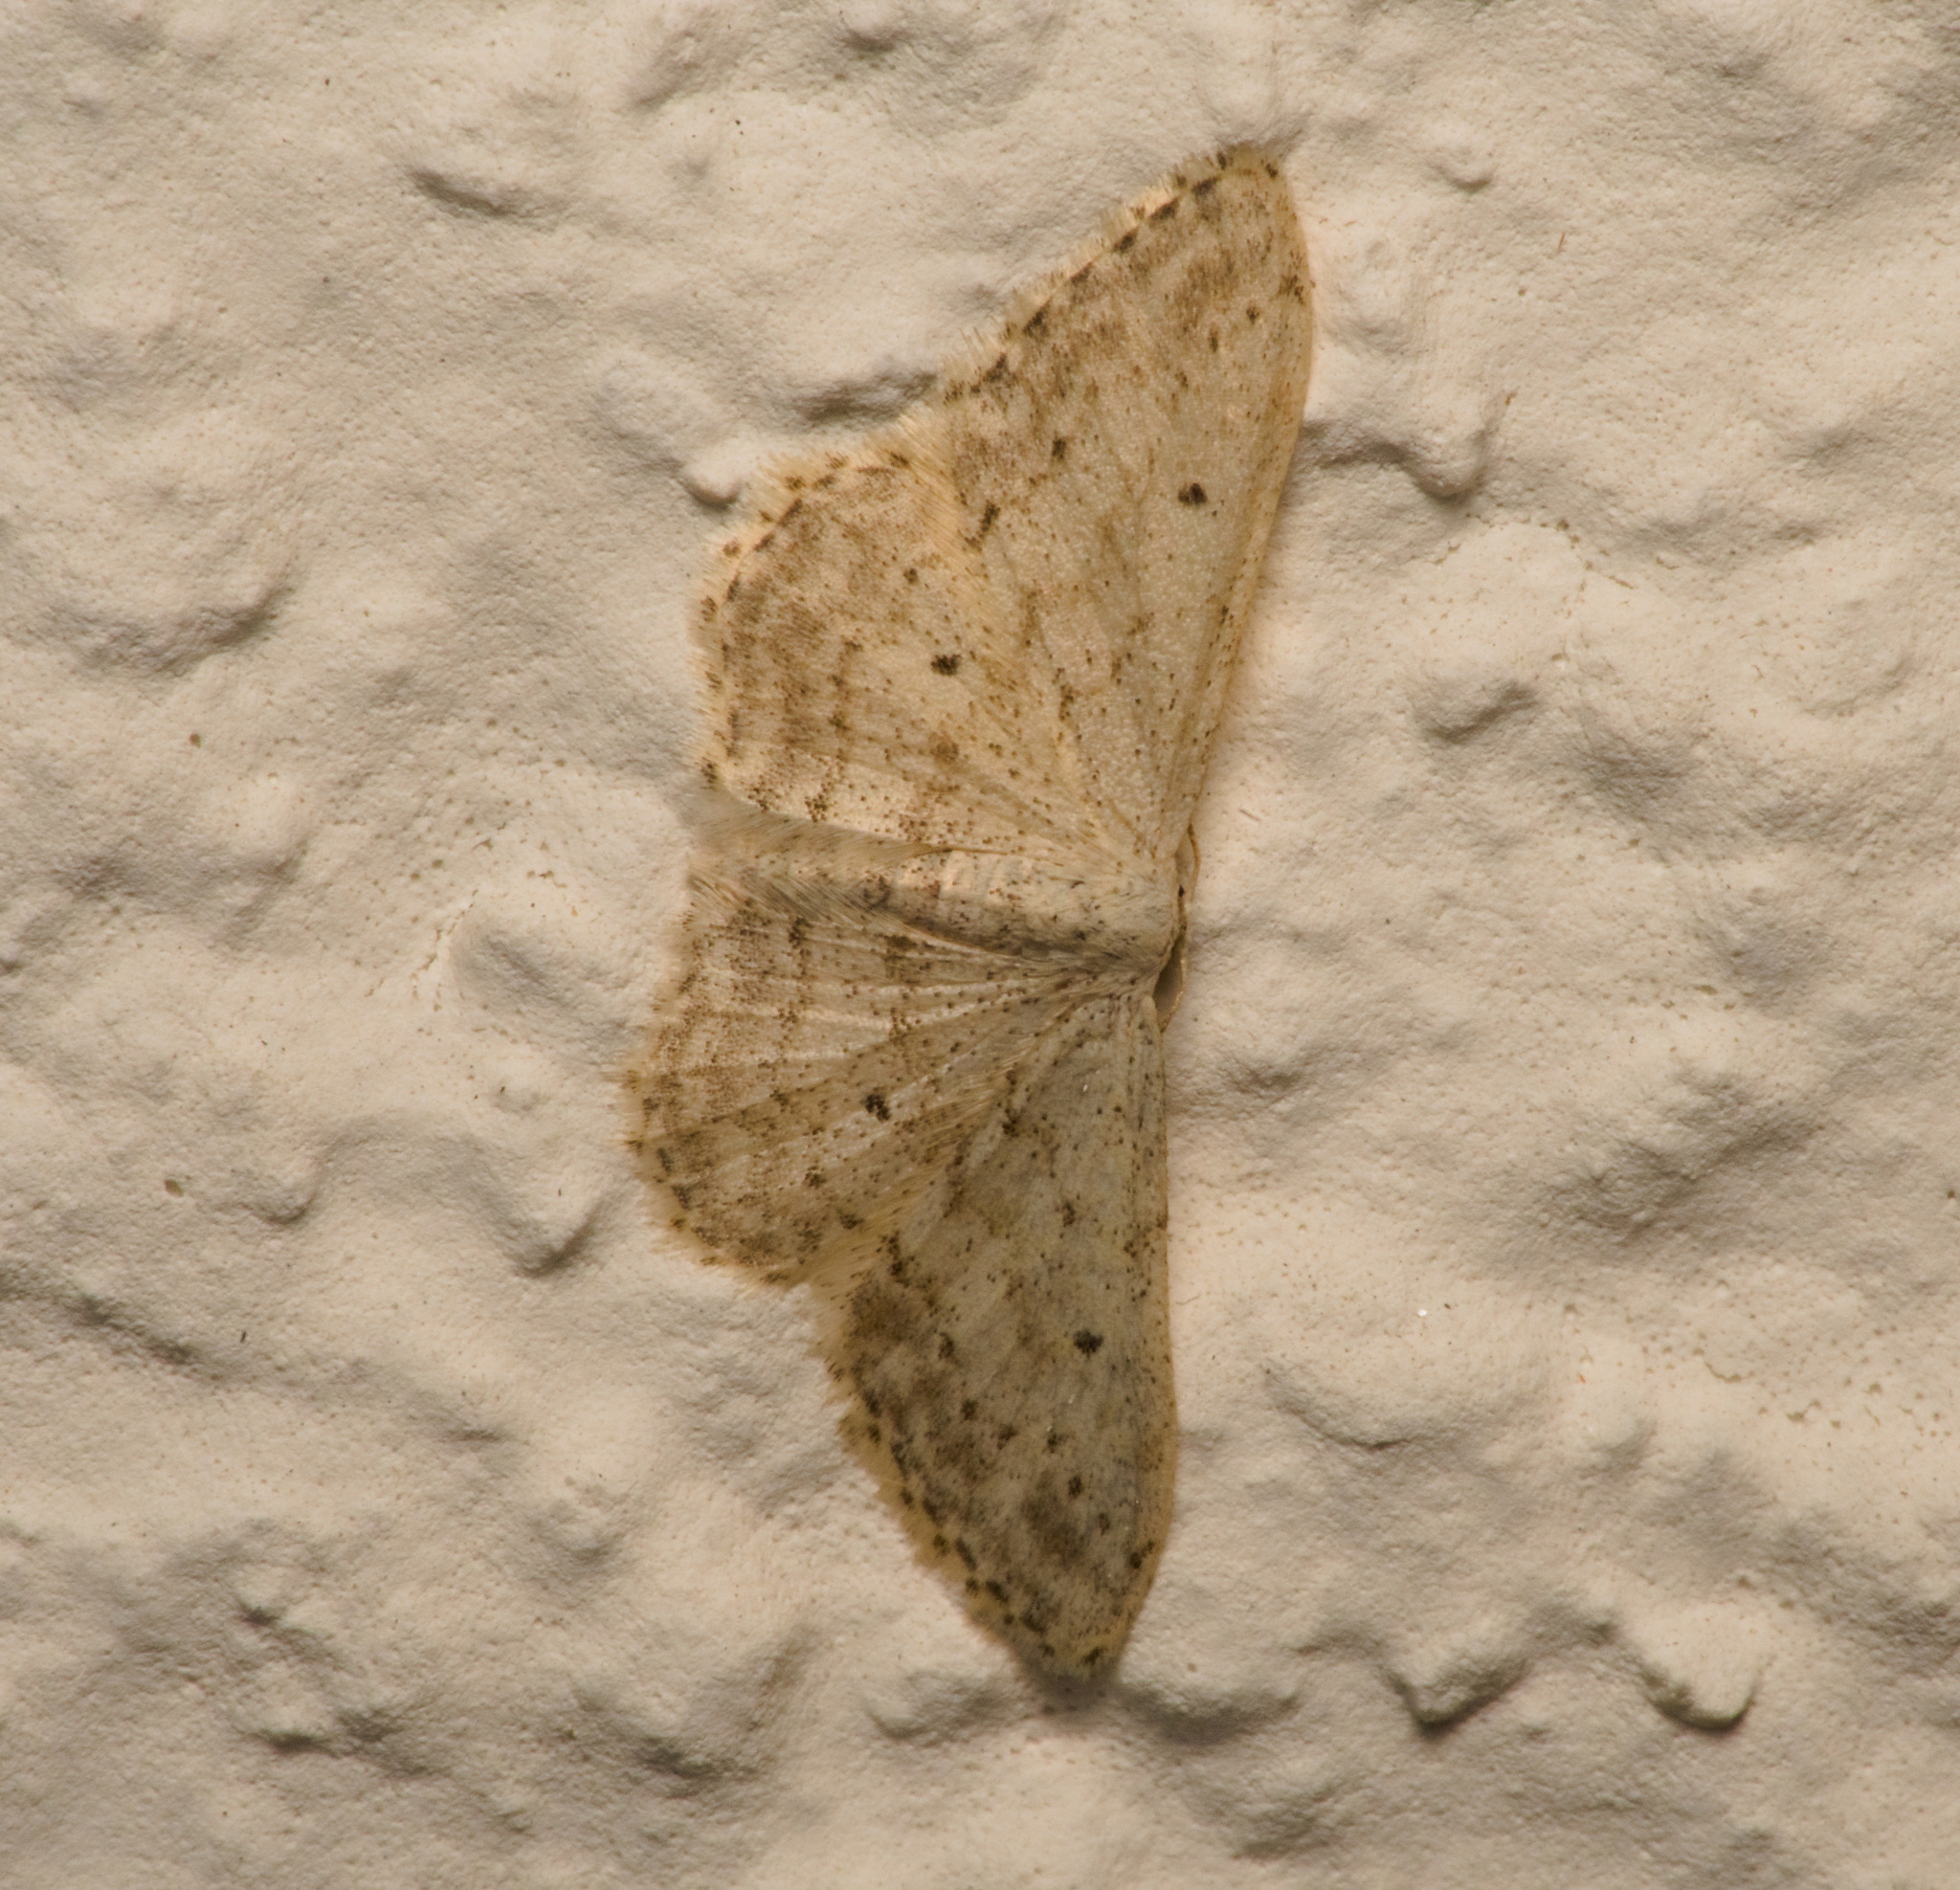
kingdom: Animalia
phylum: Arthropoda
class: Insecta
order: Lepidoptera
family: Geometridae
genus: Idaea
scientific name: Idaea seriata
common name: Small dusty wave
